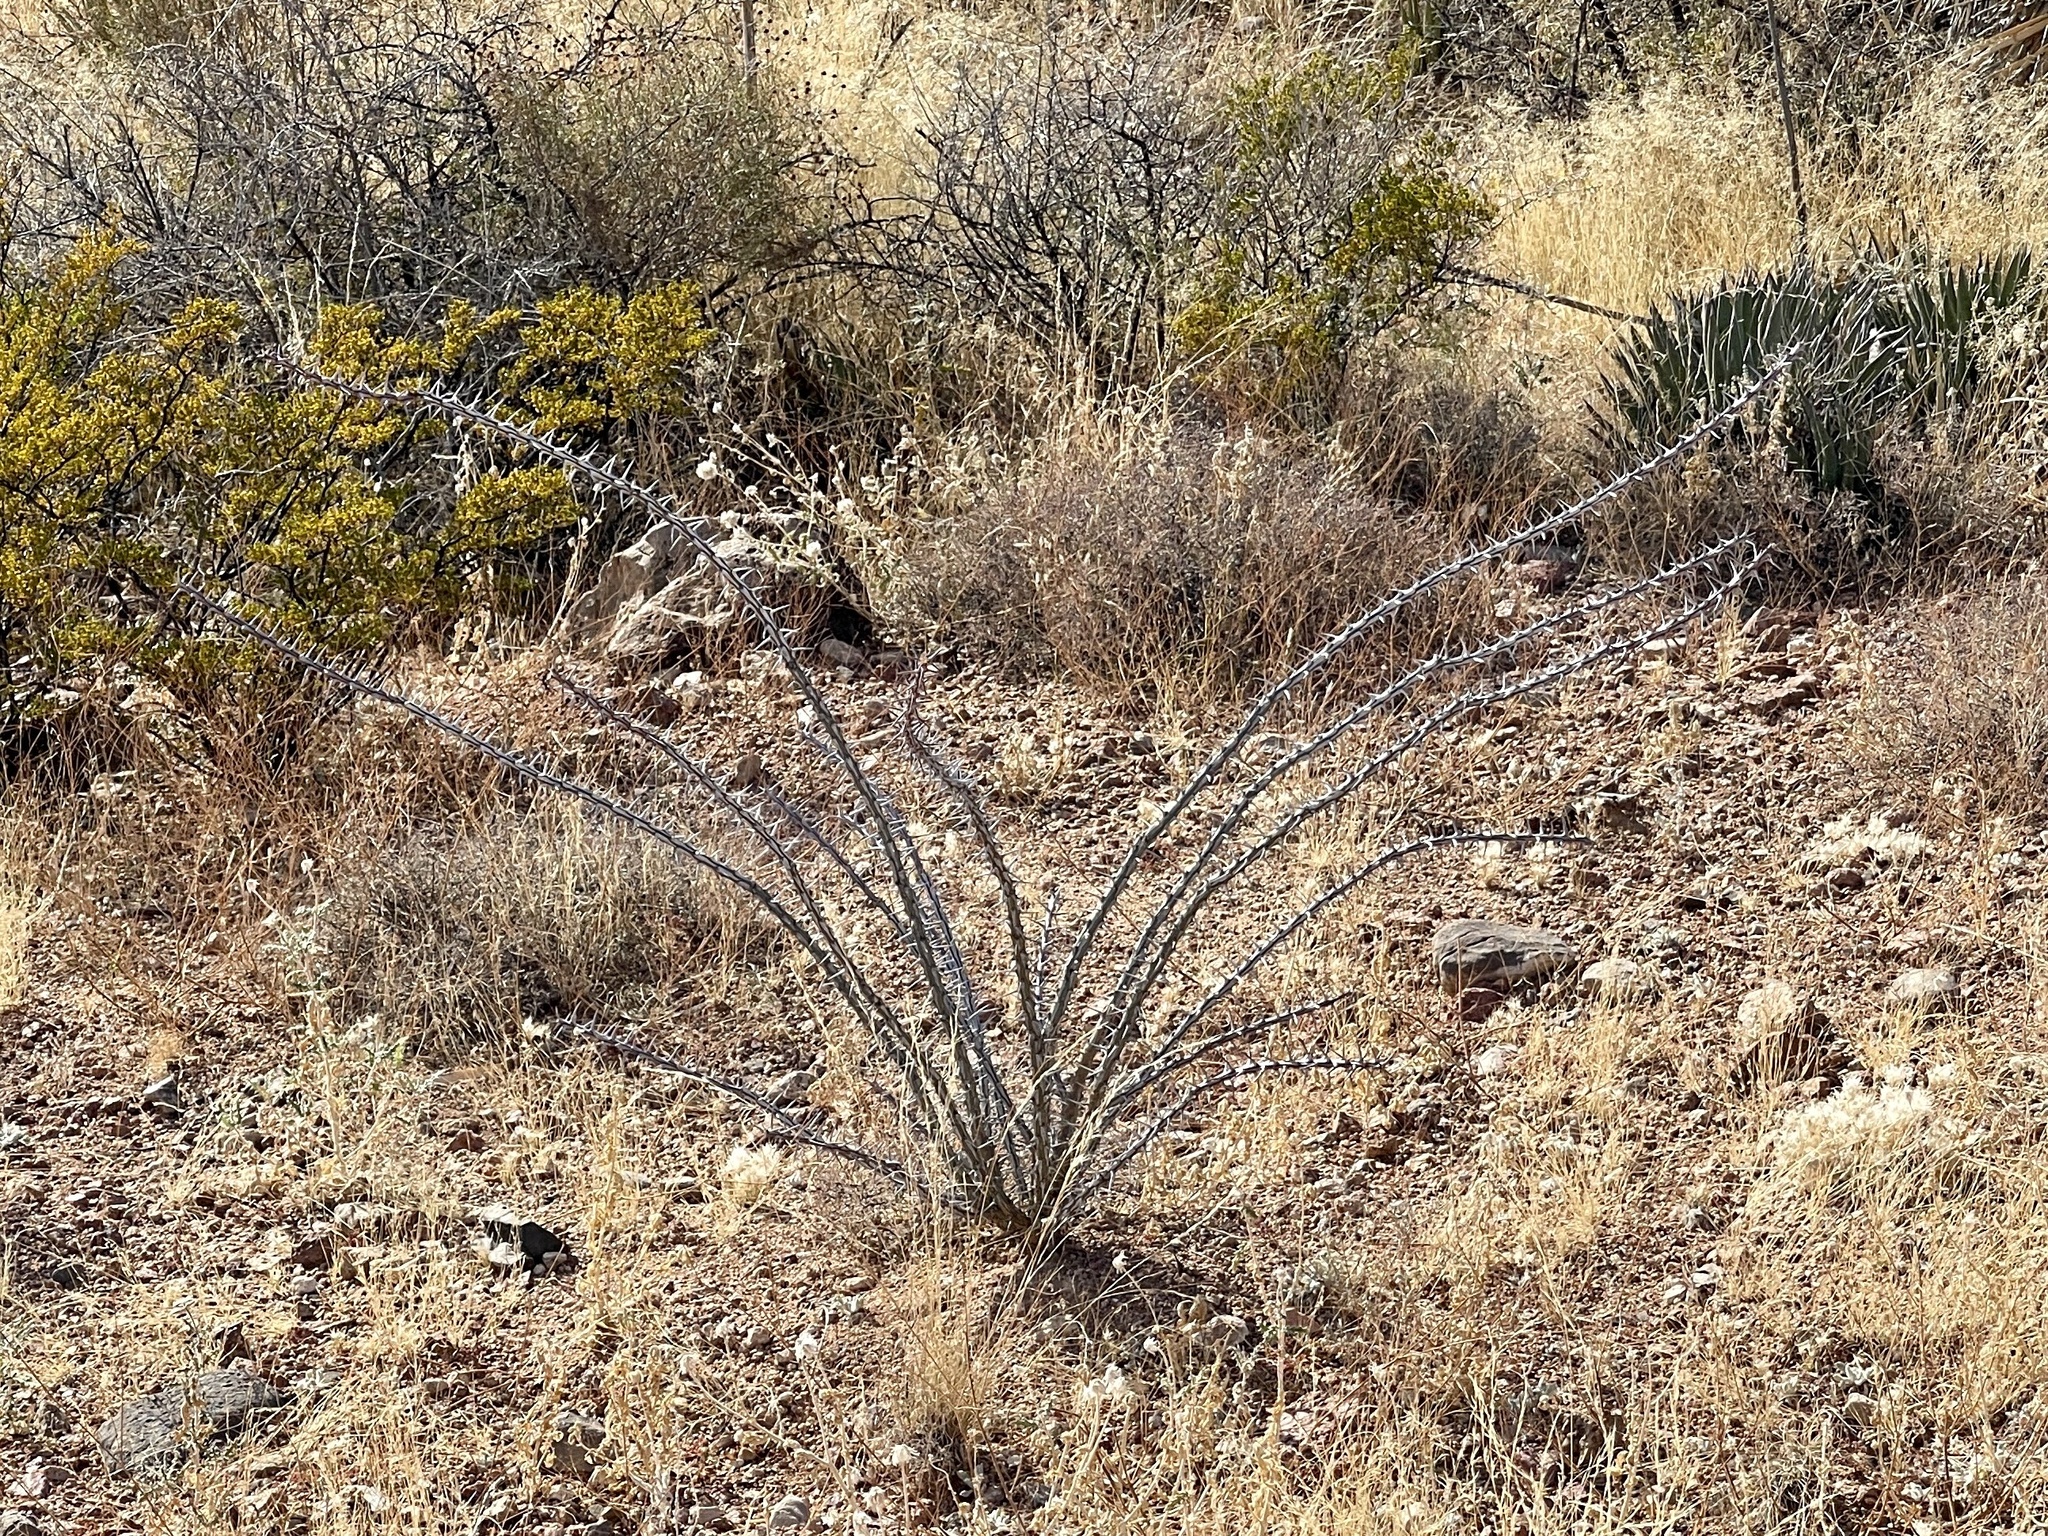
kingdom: Plantae
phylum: Tracheophyta
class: Magnoliopsida
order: Ericales
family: Fouquieriaceae
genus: Fouquieria
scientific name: Fouquieria splendens
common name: Vine-cactus
